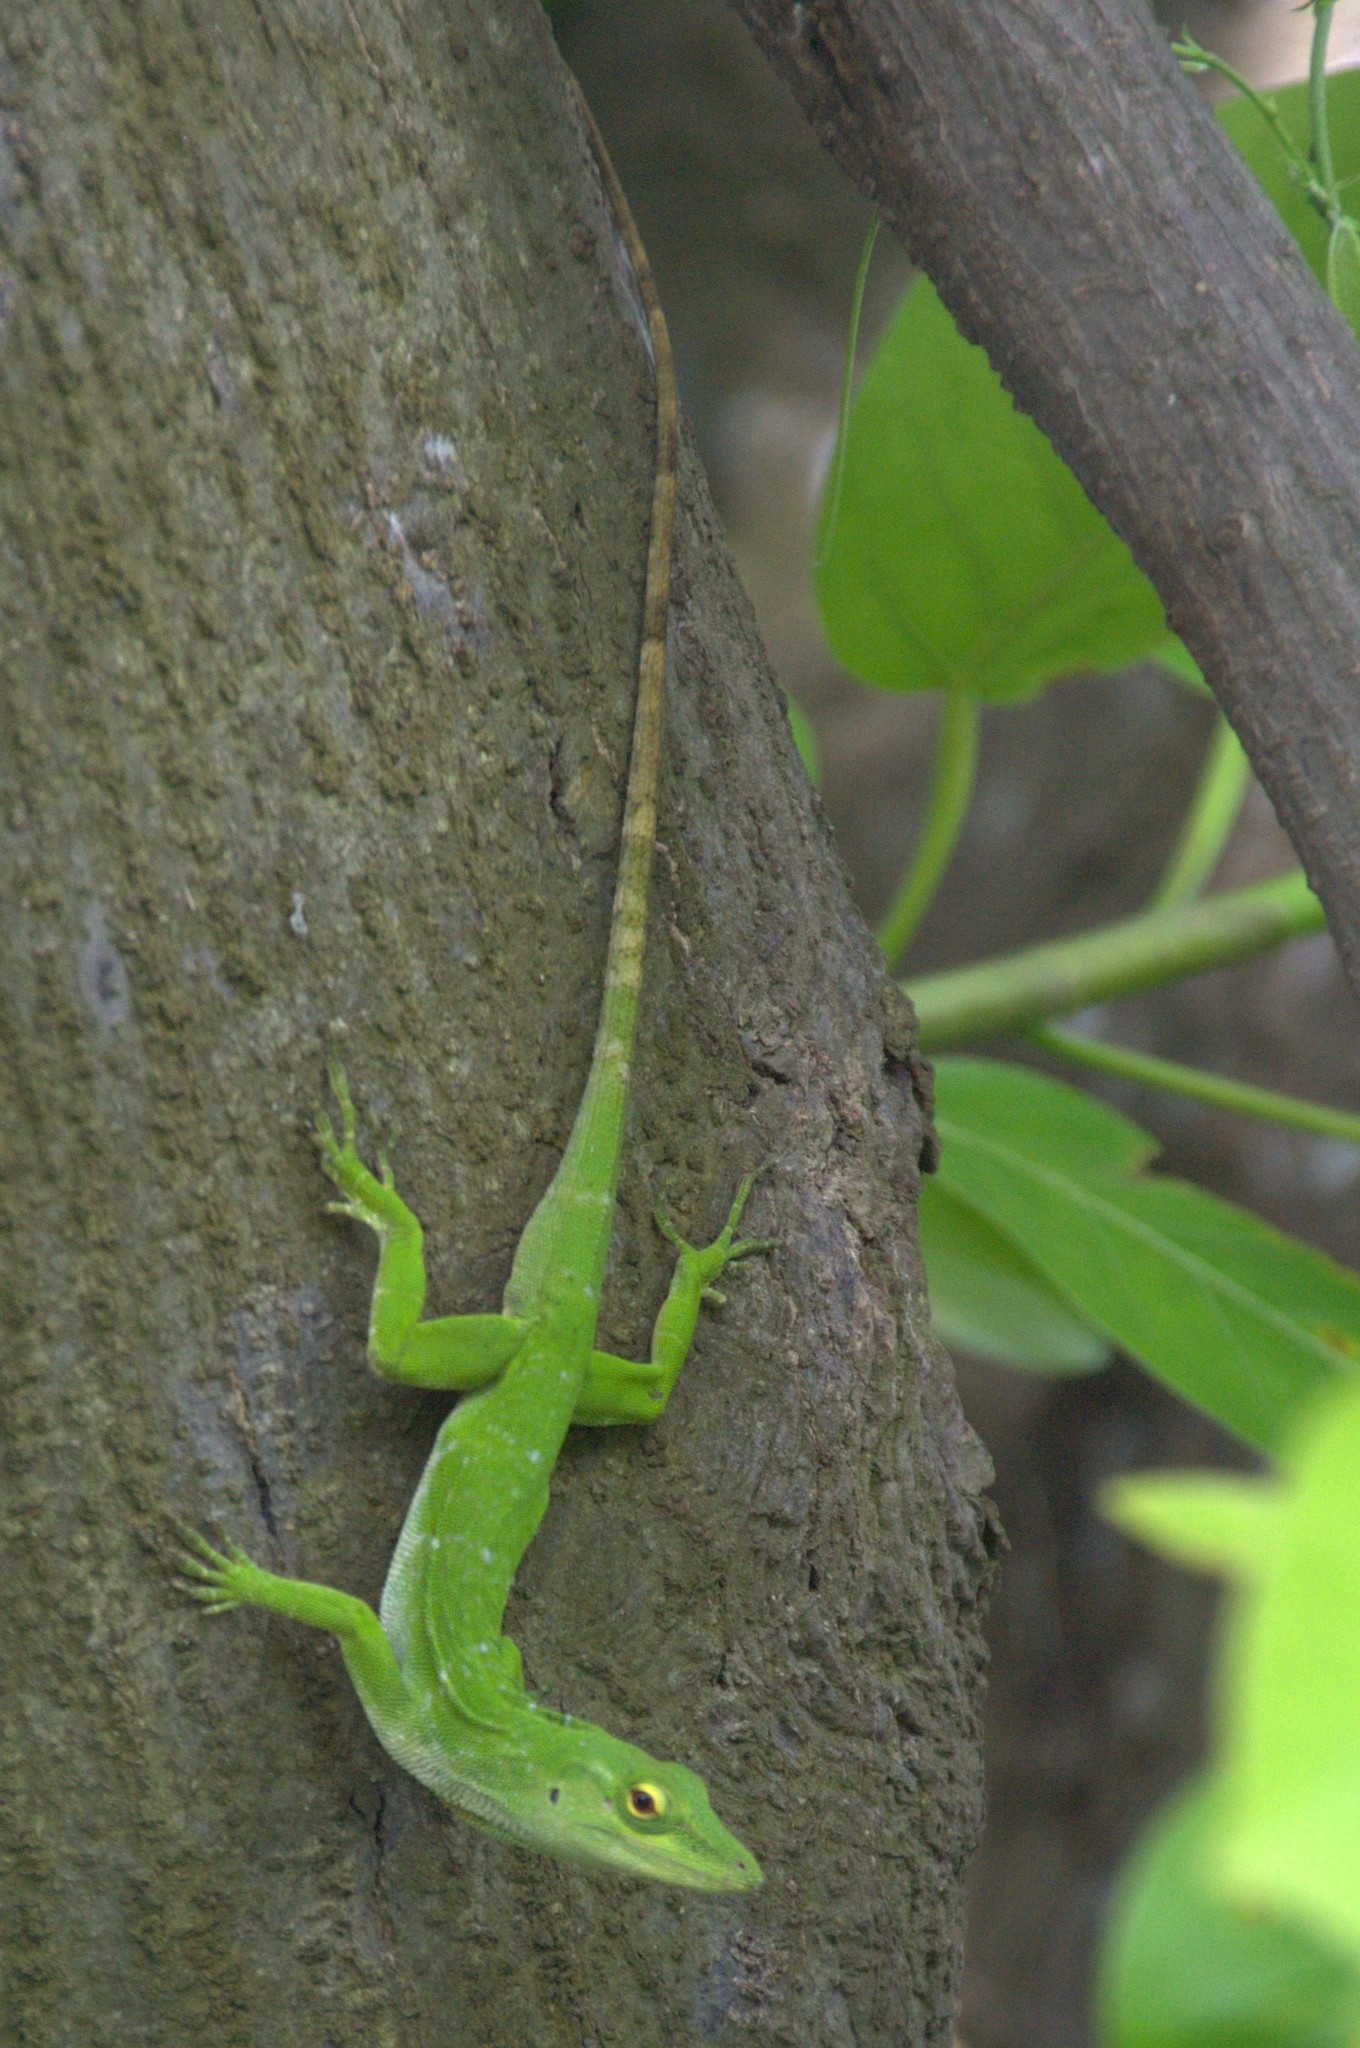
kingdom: Animalia
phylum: Chordata
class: Squamata
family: Dactyloidae
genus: Anolis
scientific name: Anolis biporcatus
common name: Giant green anole
